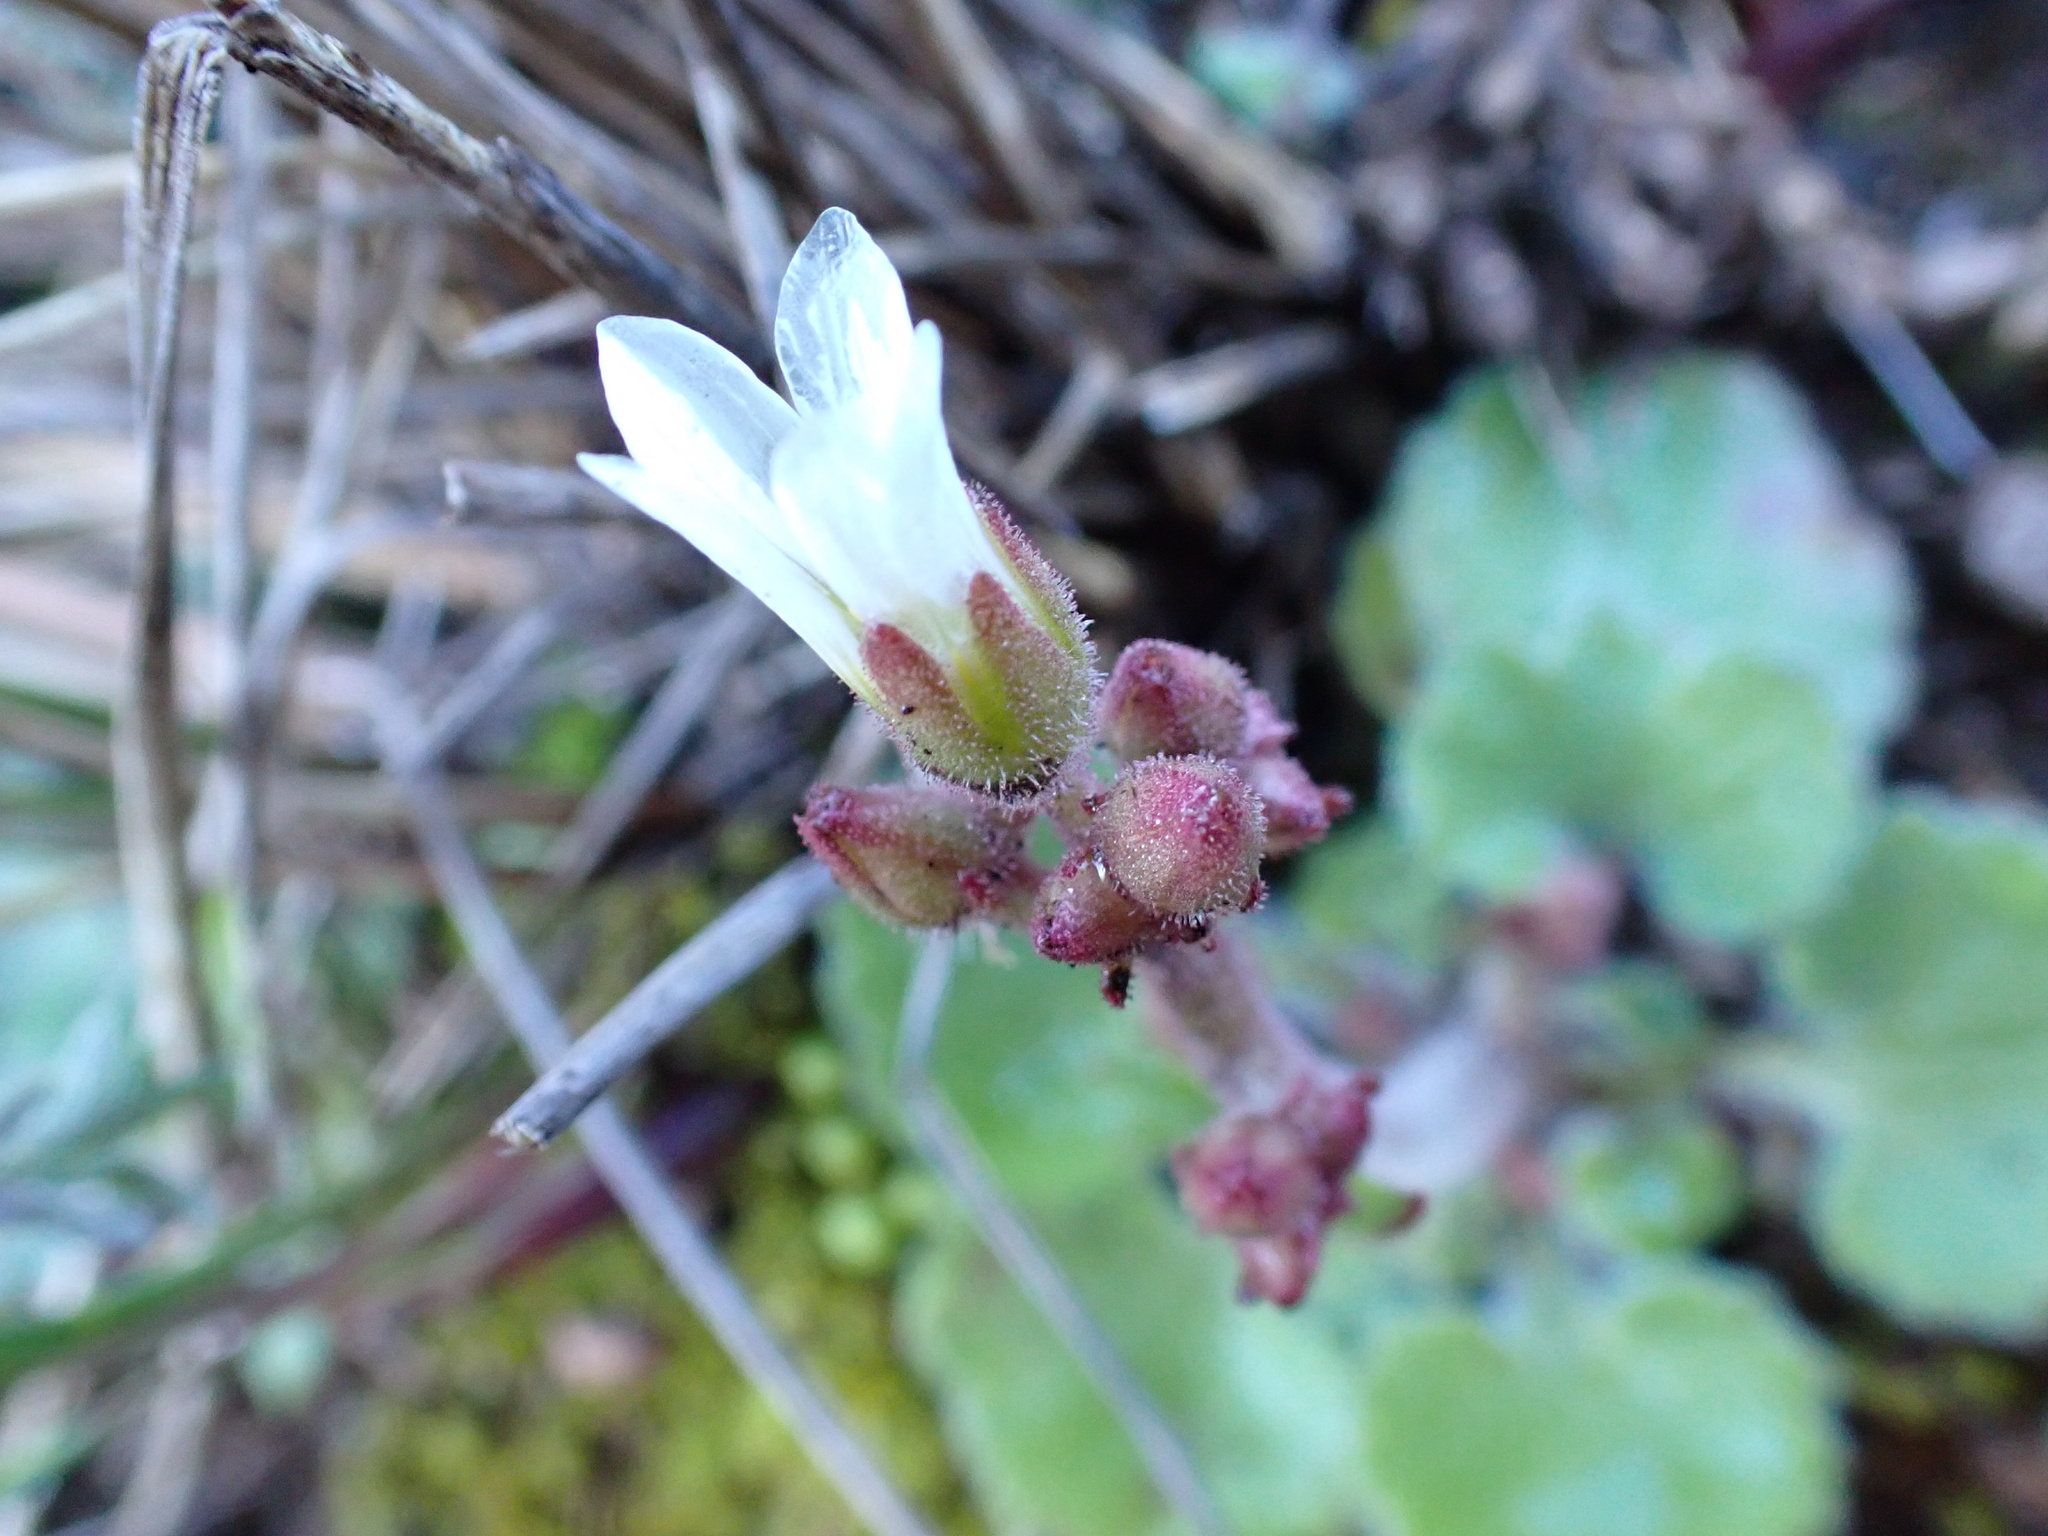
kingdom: Plantae
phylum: Tracheophyta
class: Magnoliopsida
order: Saxifragales
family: Saxifragaceae
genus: Saxifraga
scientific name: Saxifraga granulata
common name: Meadow saxifrage
